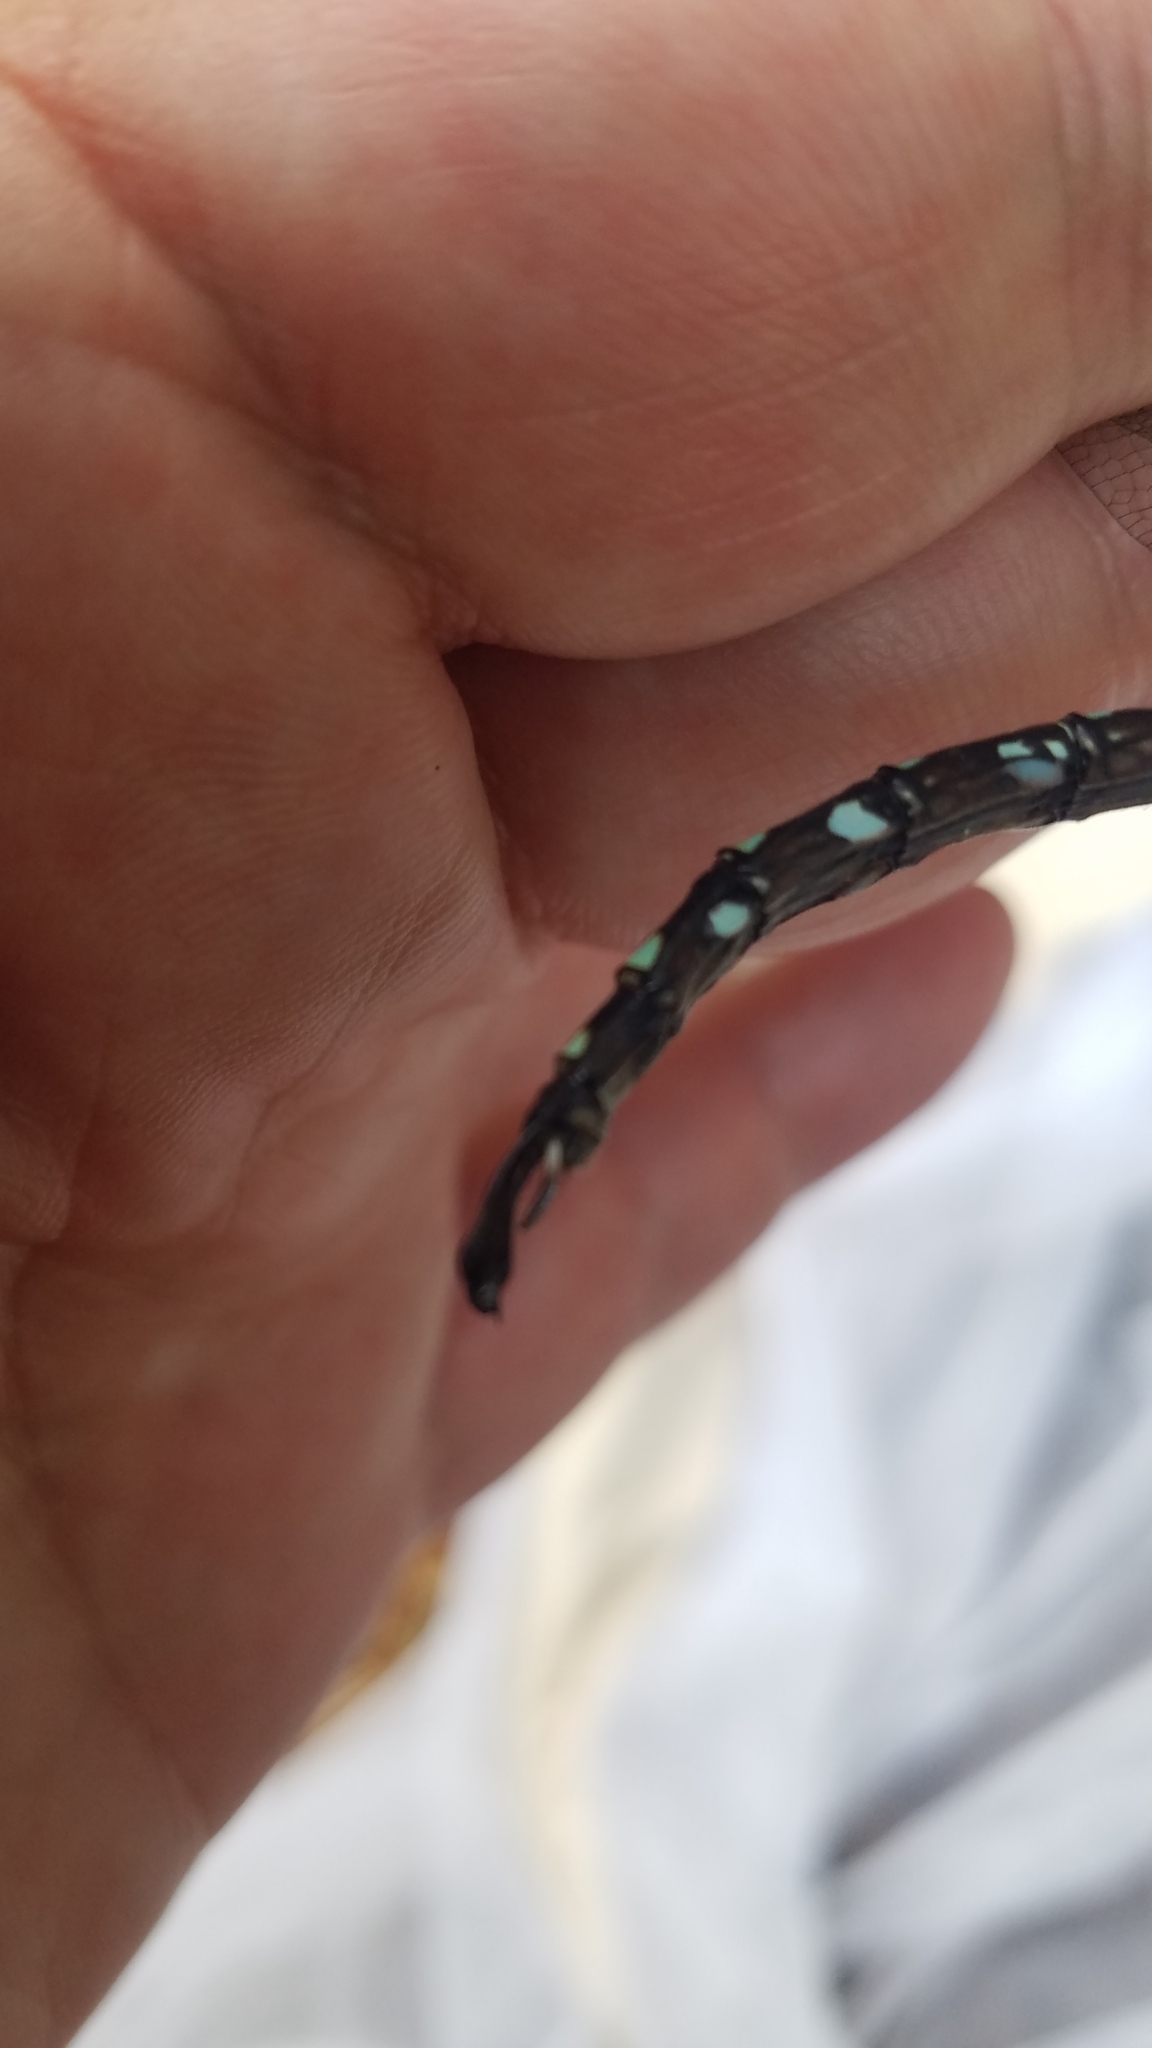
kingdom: Animalia
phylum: Arthropoda
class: Insecta
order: Odonata
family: Aeshnidae
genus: Aeshna
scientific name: Aeshna umbrosa
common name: Shadow darner
